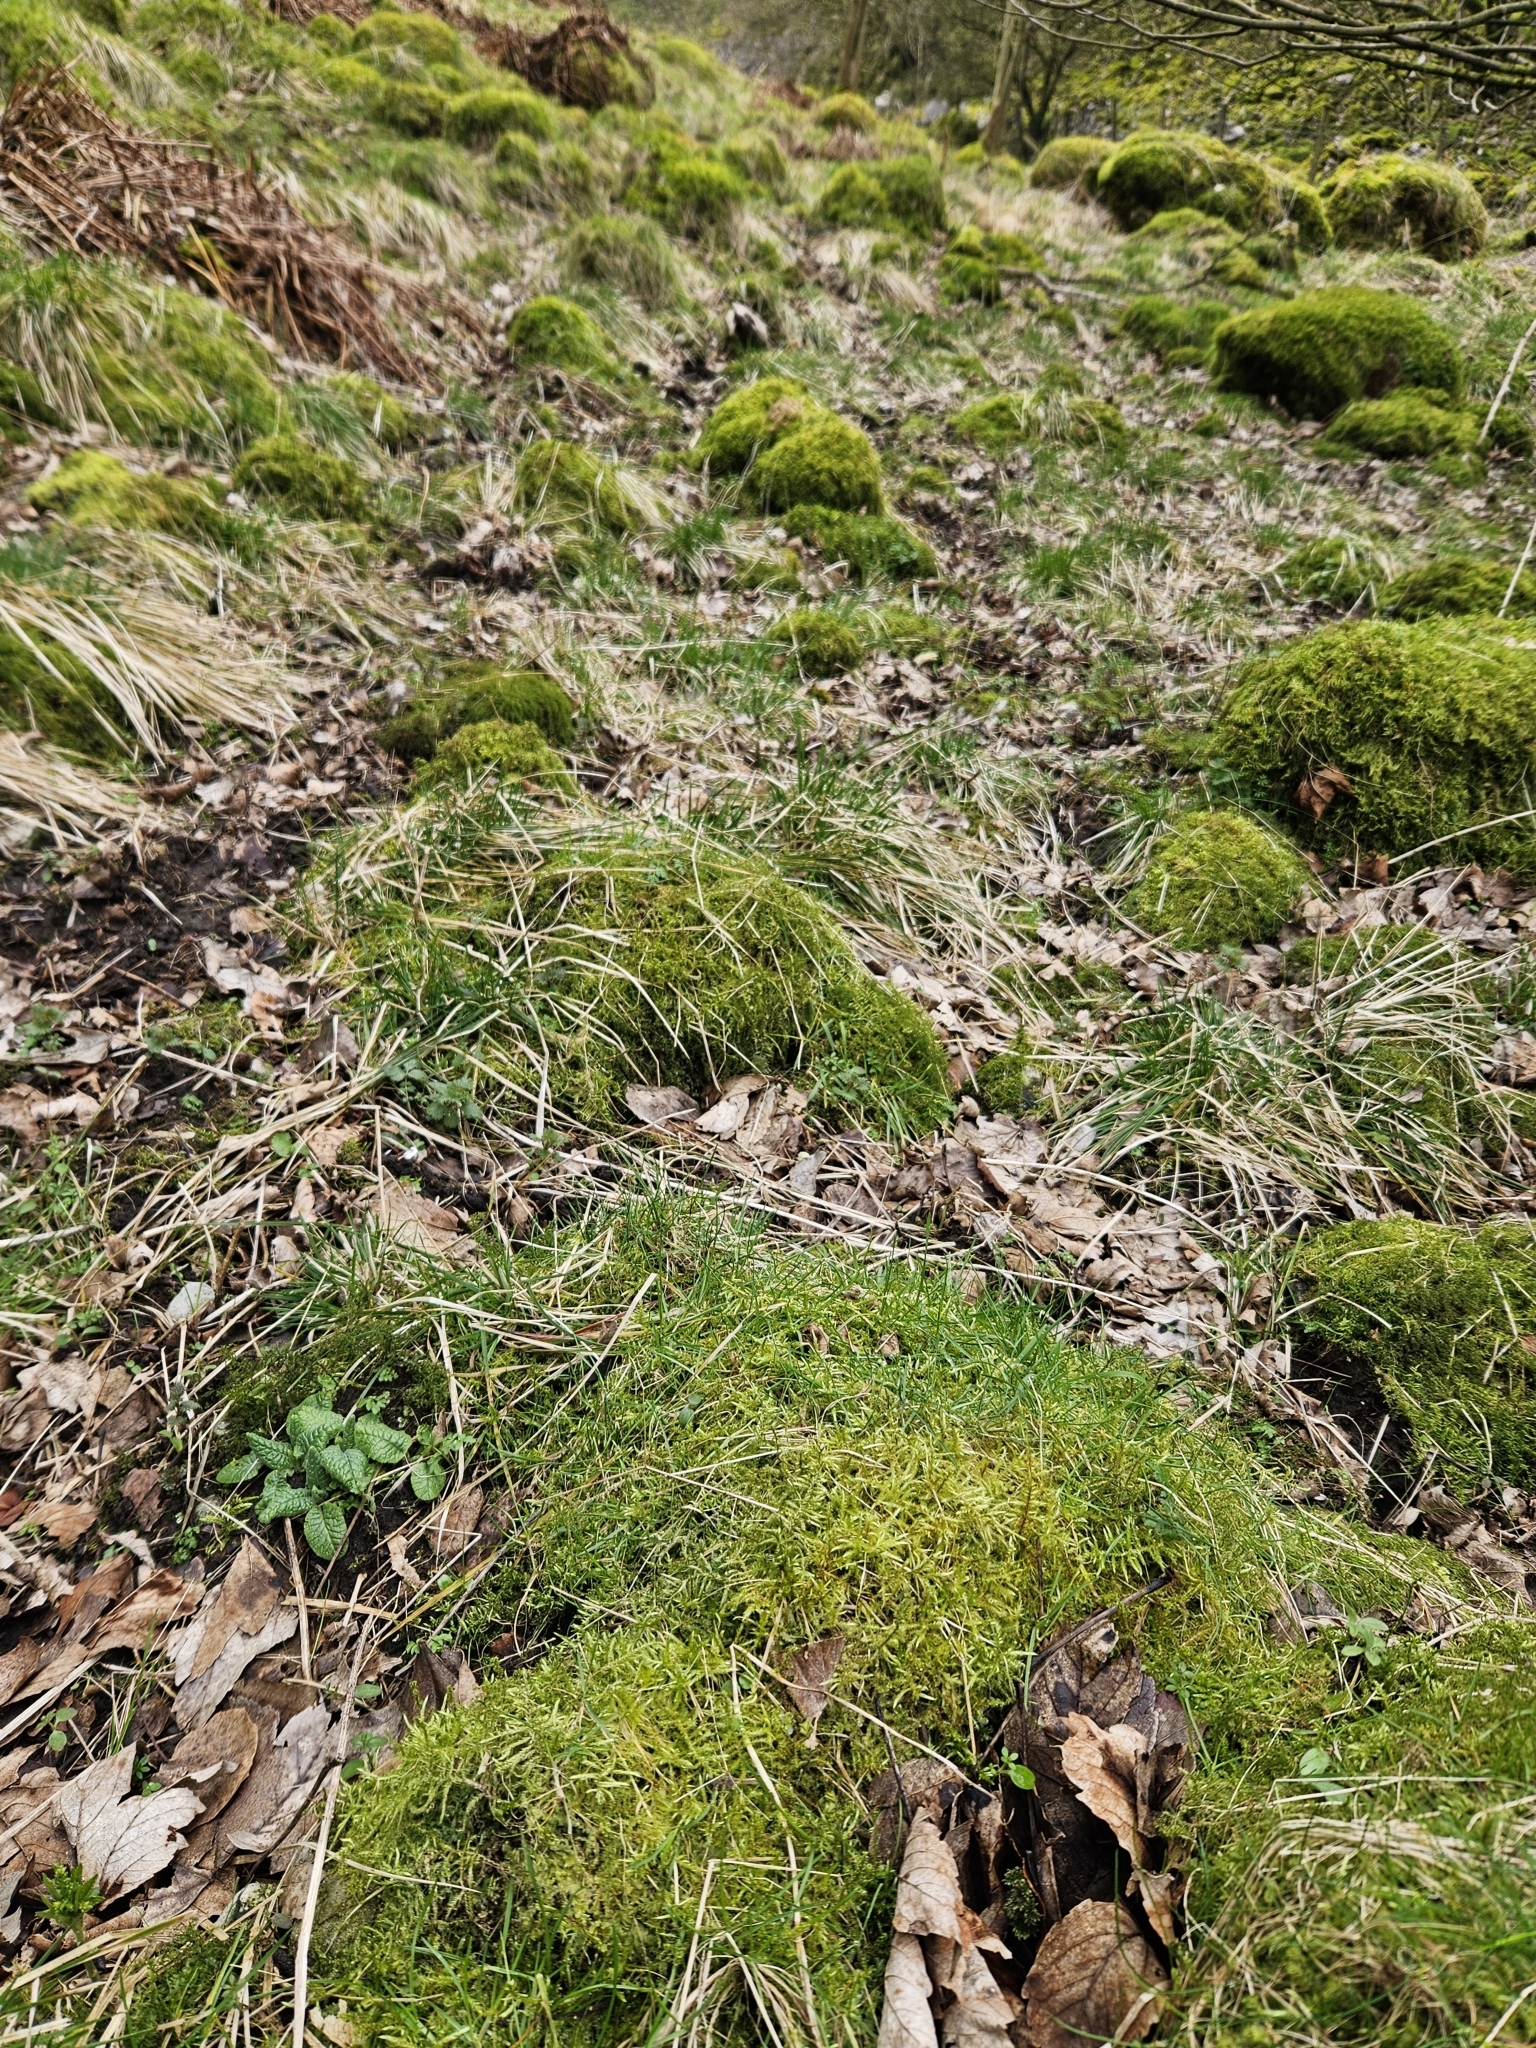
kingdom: Plantae
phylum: Bryophyta
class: Bryopsida
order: Hypnales
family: Brachytheciaceae
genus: Cirriphyllum
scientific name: Cirriphyllum piliferum
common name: Hair-pointed moss
